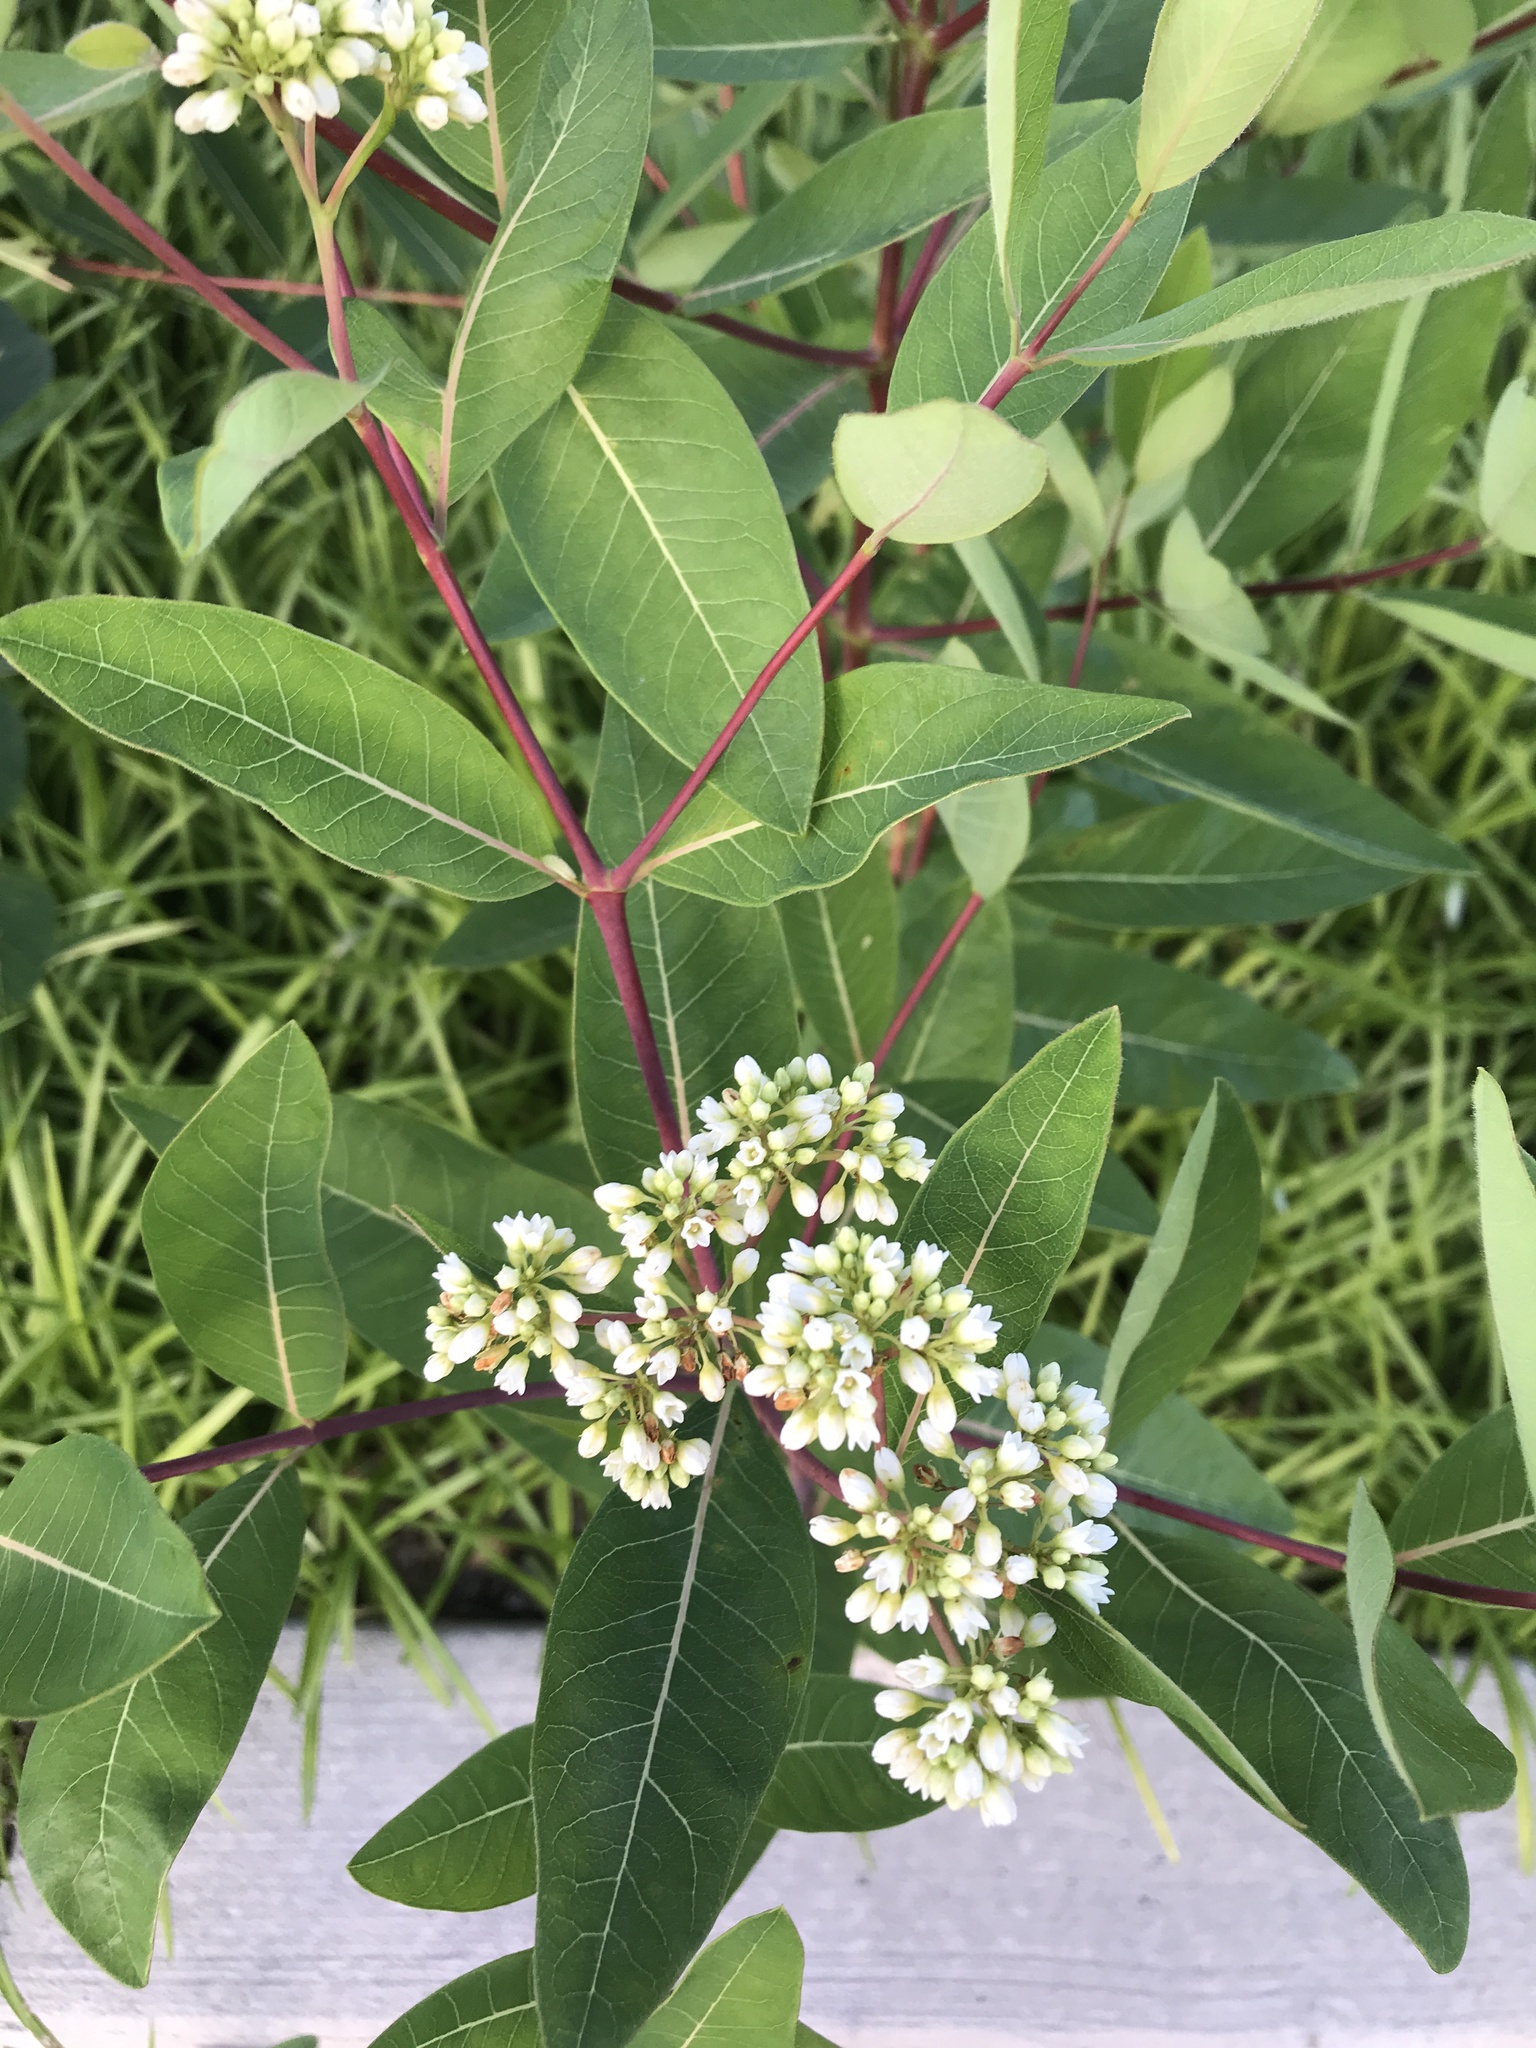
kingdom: Plantae
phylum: Tracheophyta
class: Magnoliopsida
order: Gentianales
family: Apocynaceae
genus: Apocynum
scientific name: Apocynum cannabinum
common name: Hemp dogbane
